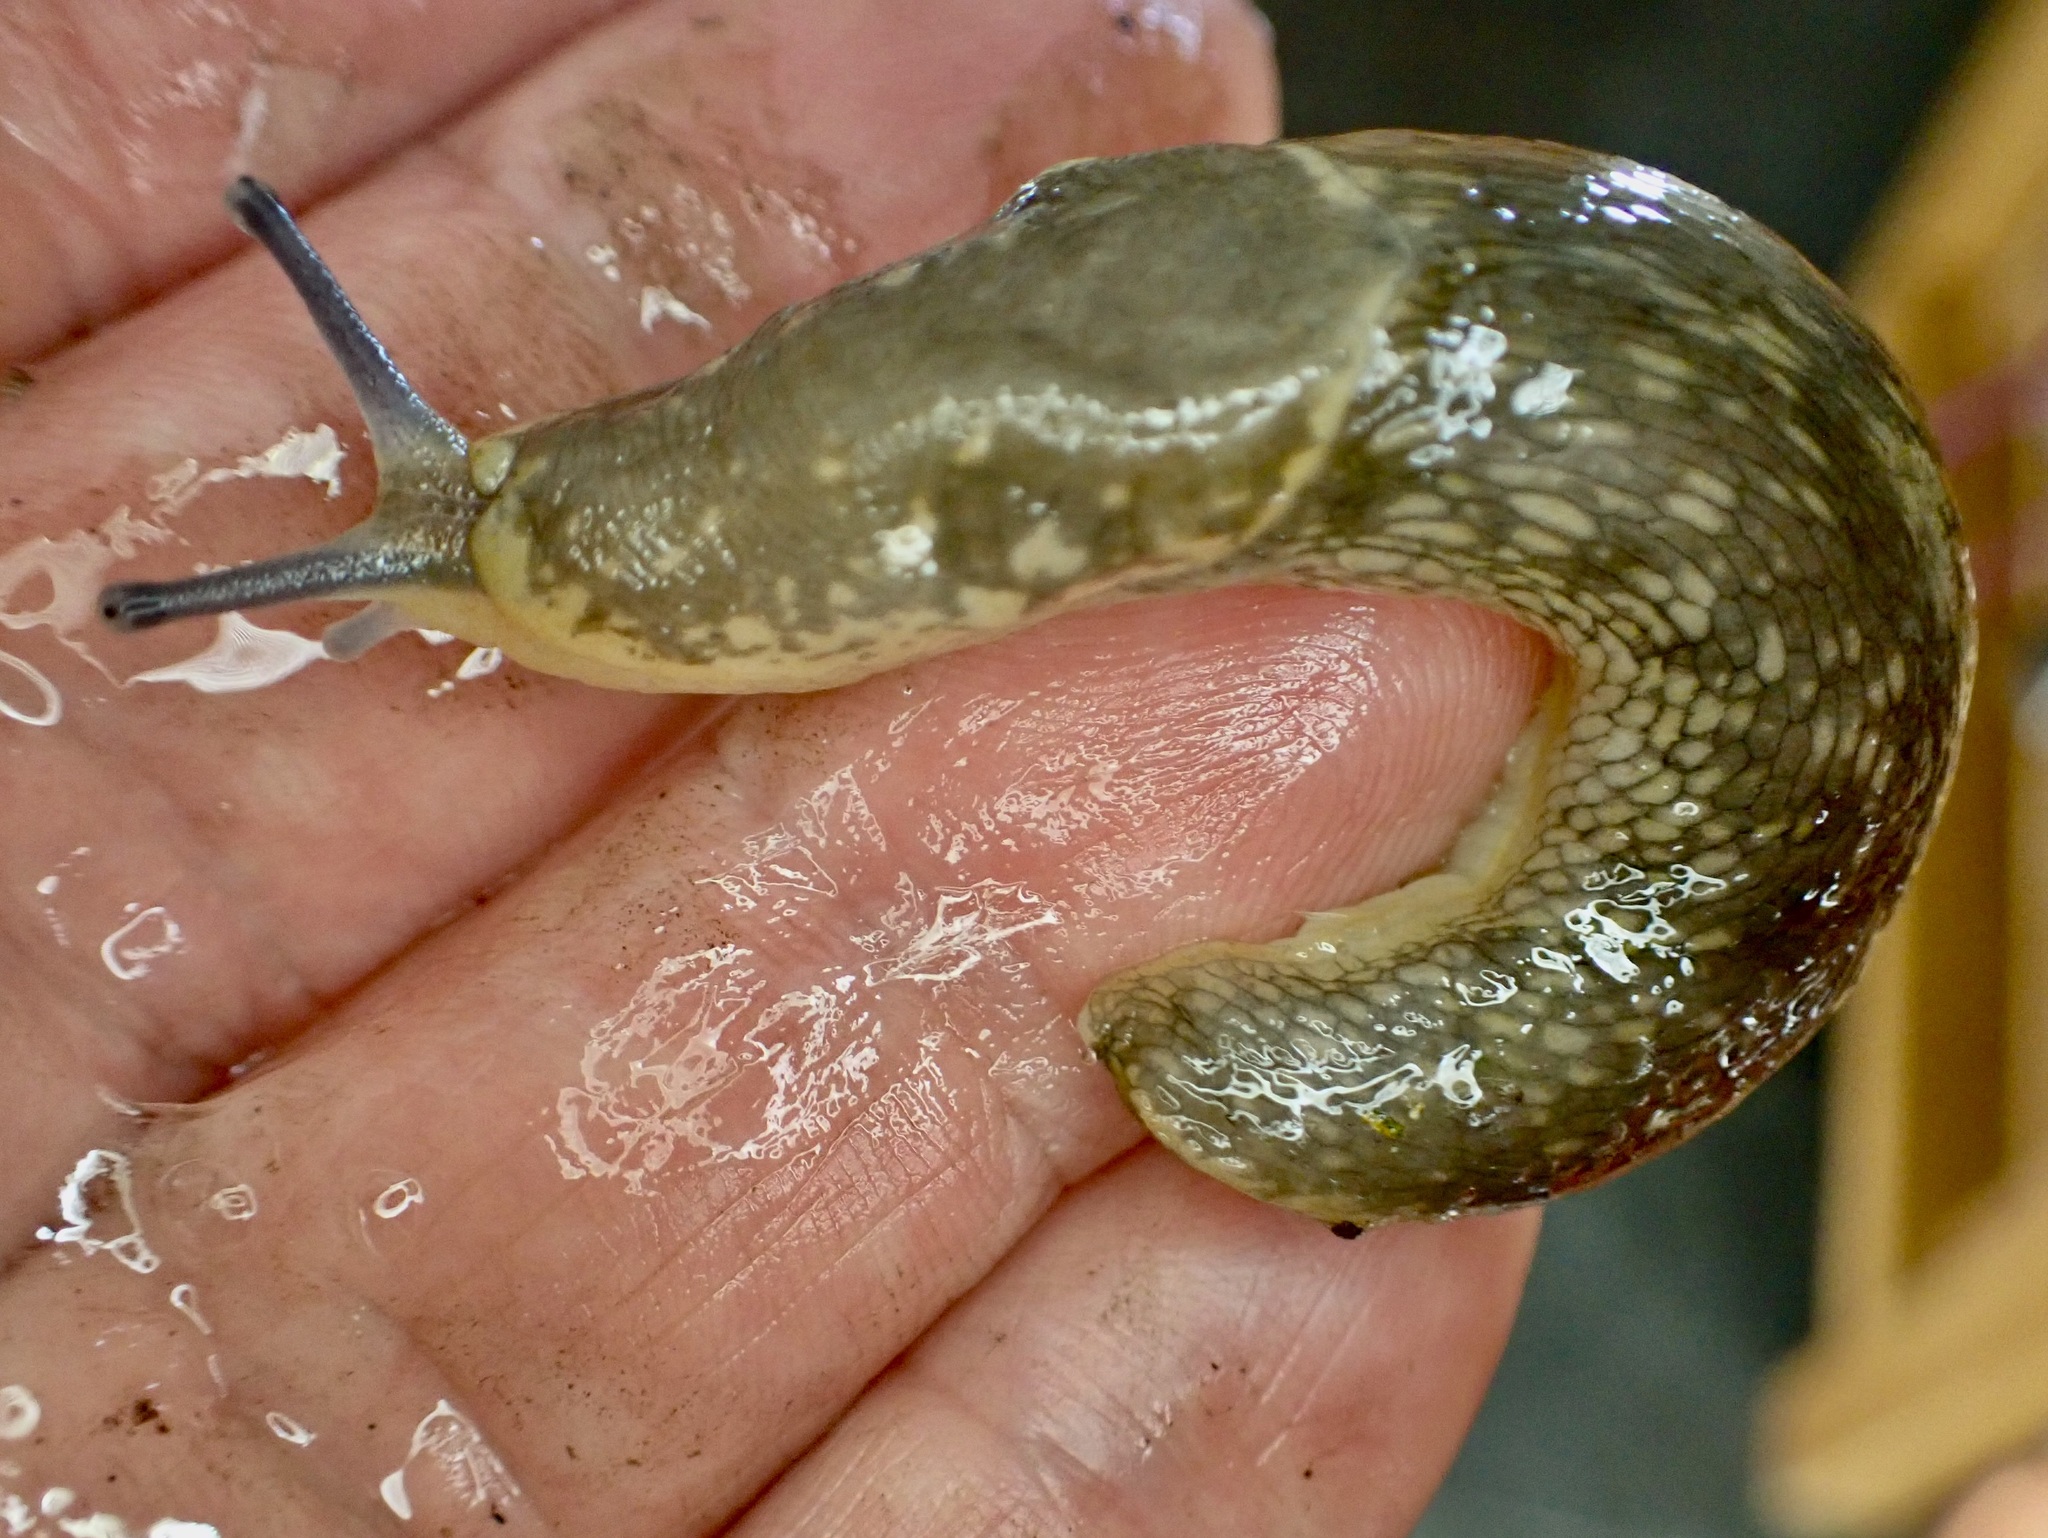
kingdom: Animalia
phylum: Mollusca
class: Gastropoda
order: Stylommatophora
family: Limacidae
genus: Limacus
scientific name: Limacus flavus
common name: Yellow gardenslug
